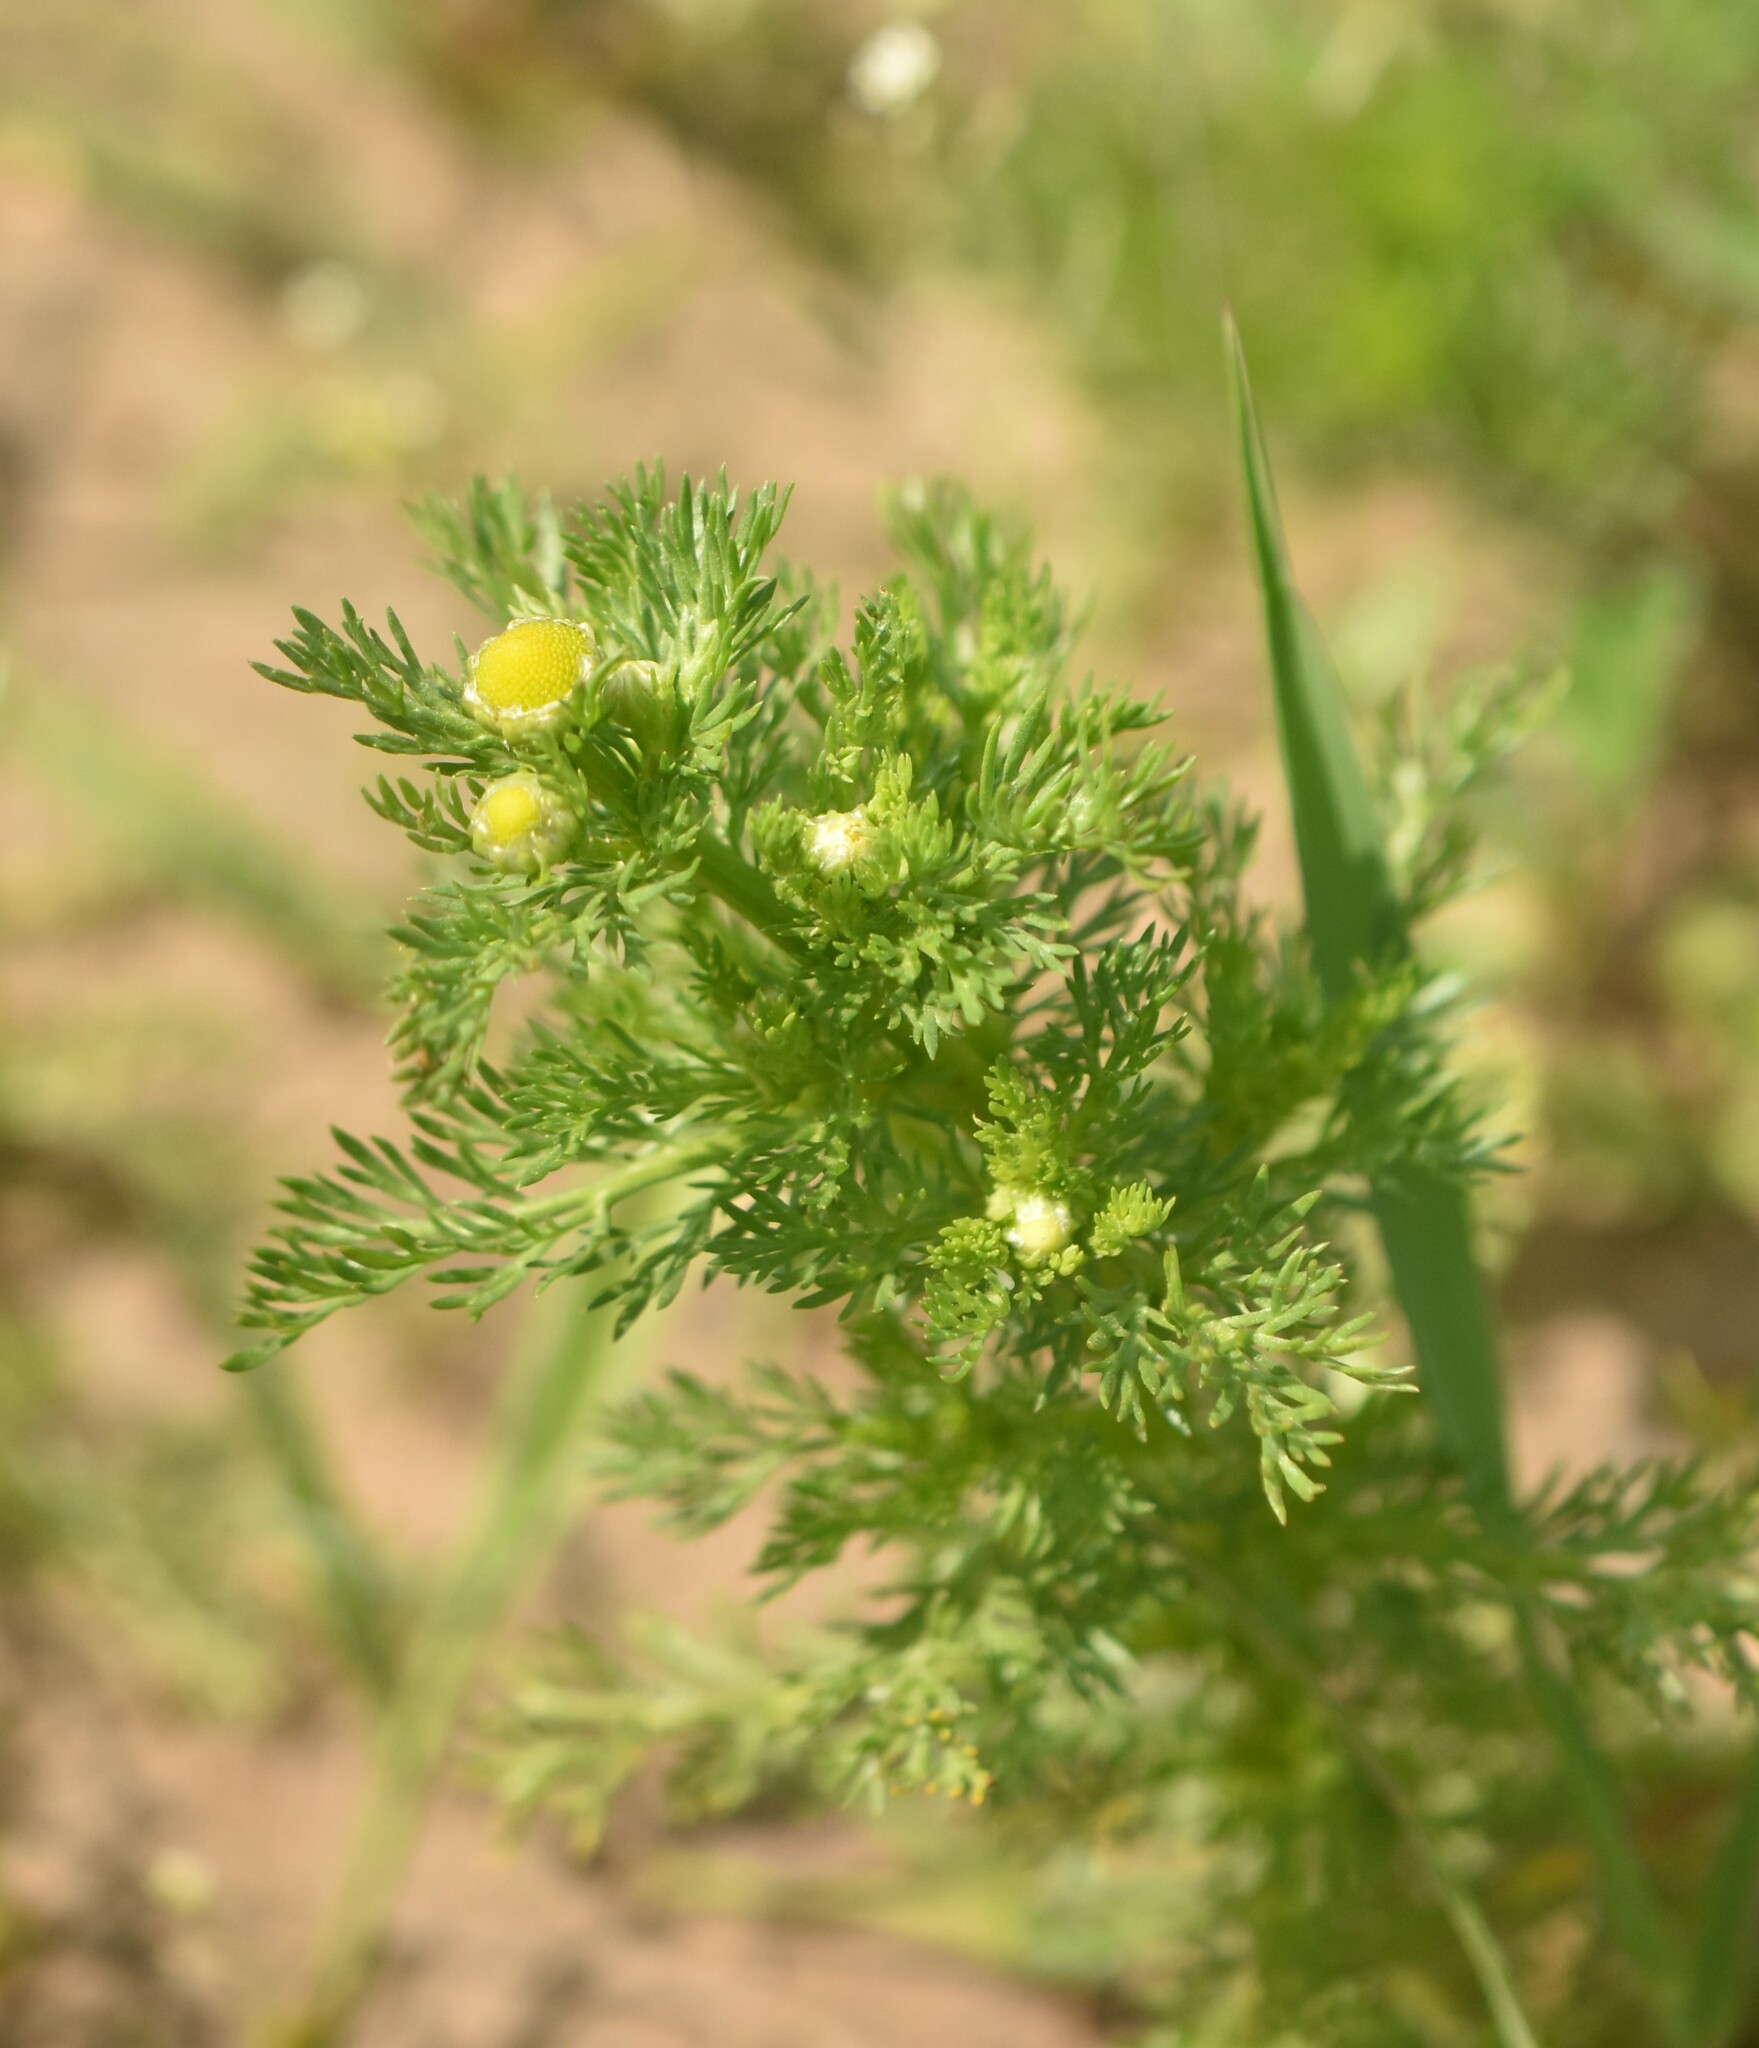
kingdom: Plantae
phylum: Tracheophyta
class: Magnoliopsida
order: Asterales
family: Asteraceae
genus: Matricaria
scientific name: Matricaria discoidea
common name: Disc mayweed
